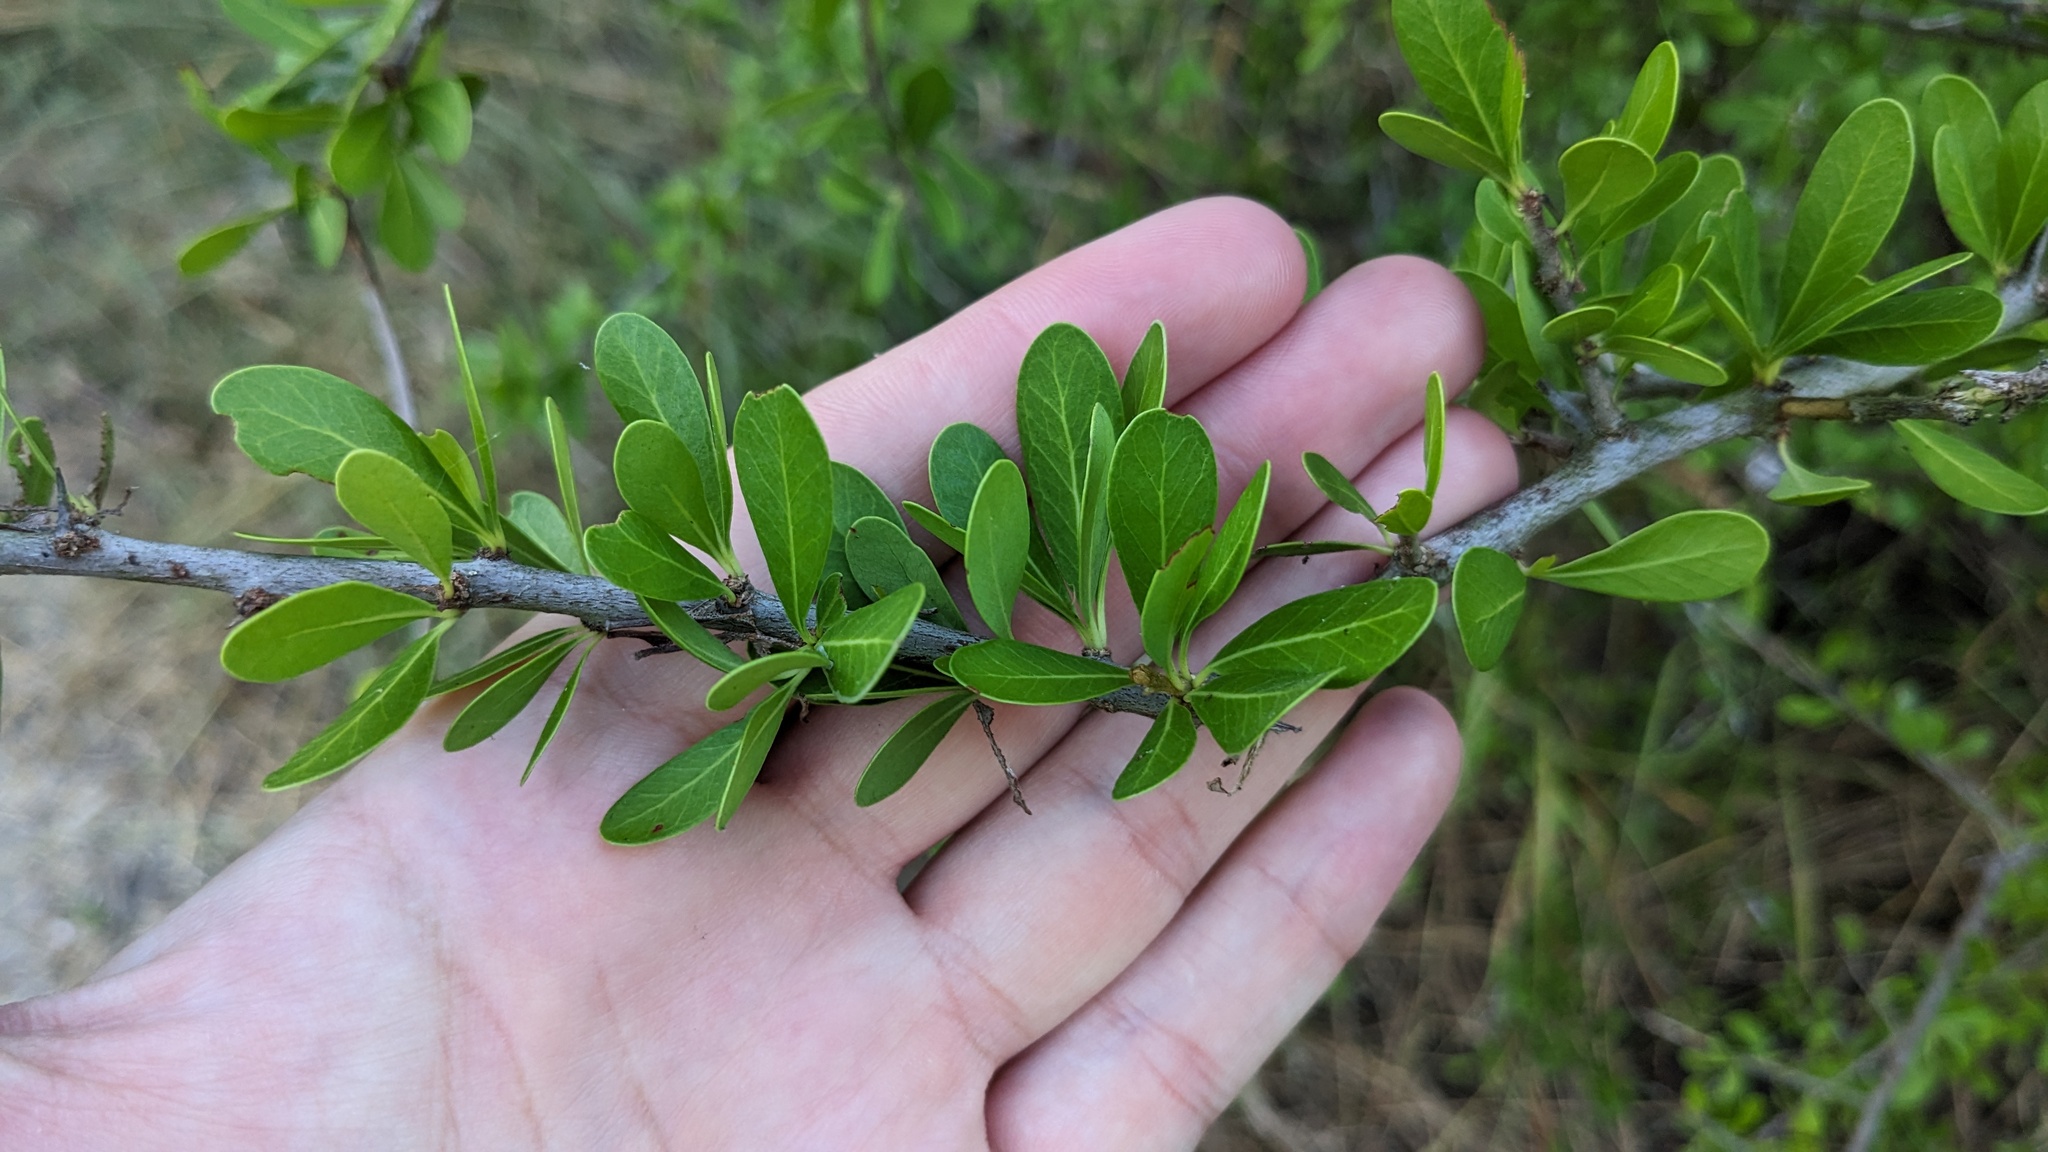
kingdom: Plantae
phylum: Tracheophyta
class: Magnoliopsida
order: Ericales
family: Sapotaceae
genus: Sideroxylon
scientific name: Sideroxylon celastrinum
